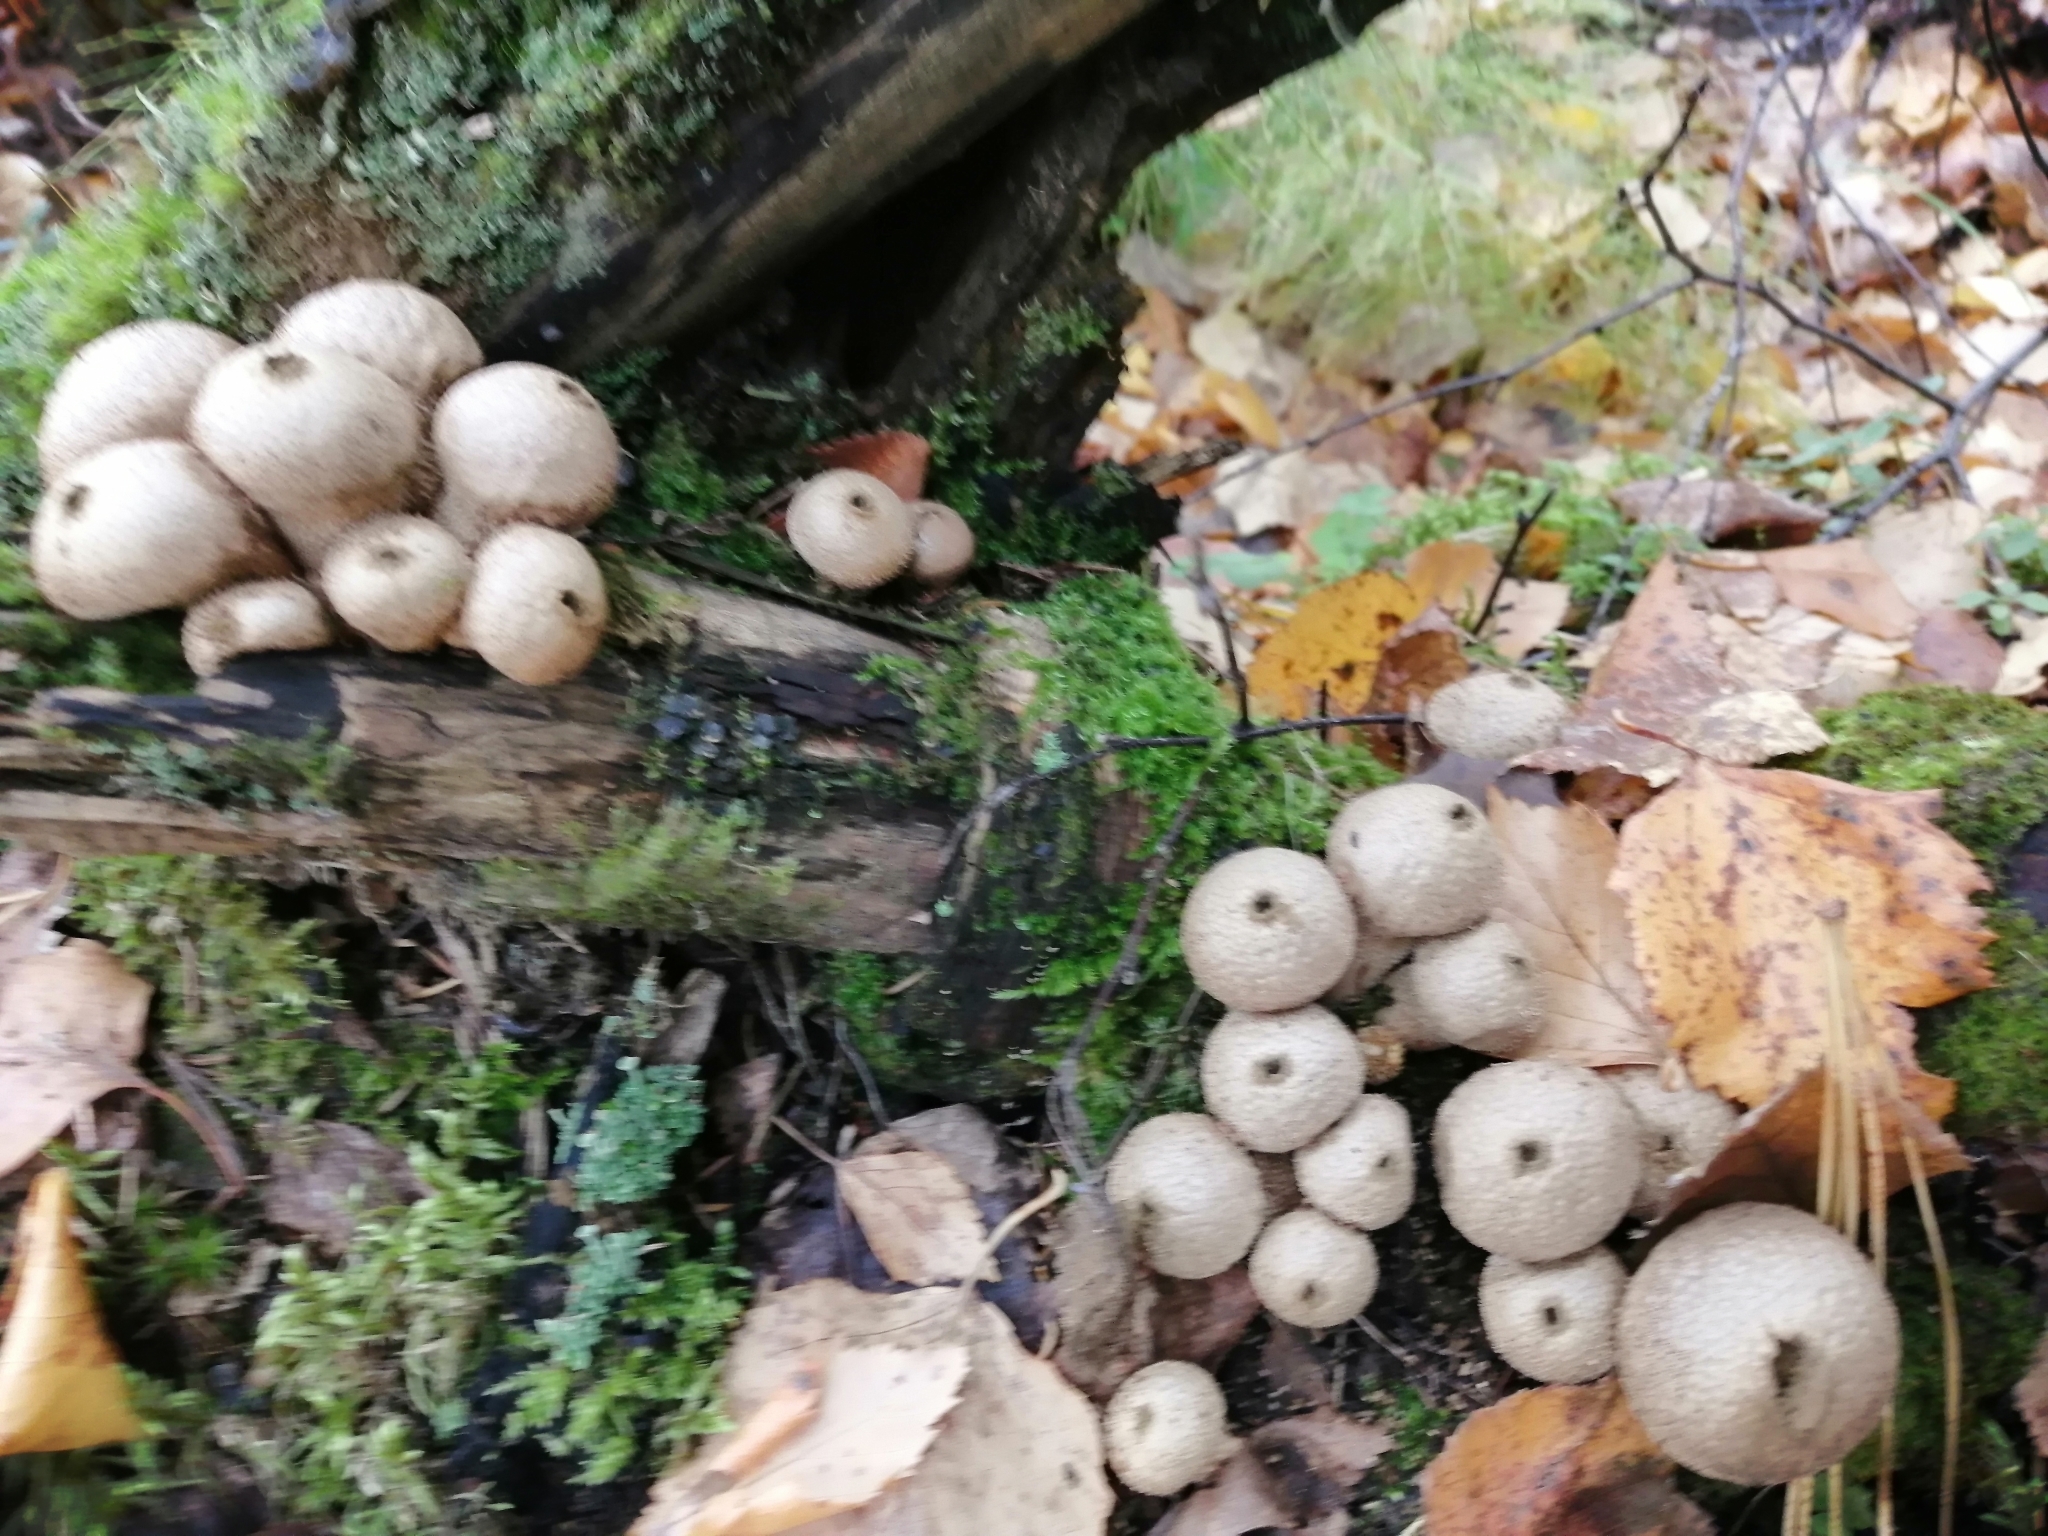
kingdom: Fungi
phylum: Basidiomycota
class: Agaricomycetes
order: Agaricales
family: Lycoperdaceae
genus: Apioperdon
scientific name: Apioperdon pyriforme
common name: Pear-shaped puffball
